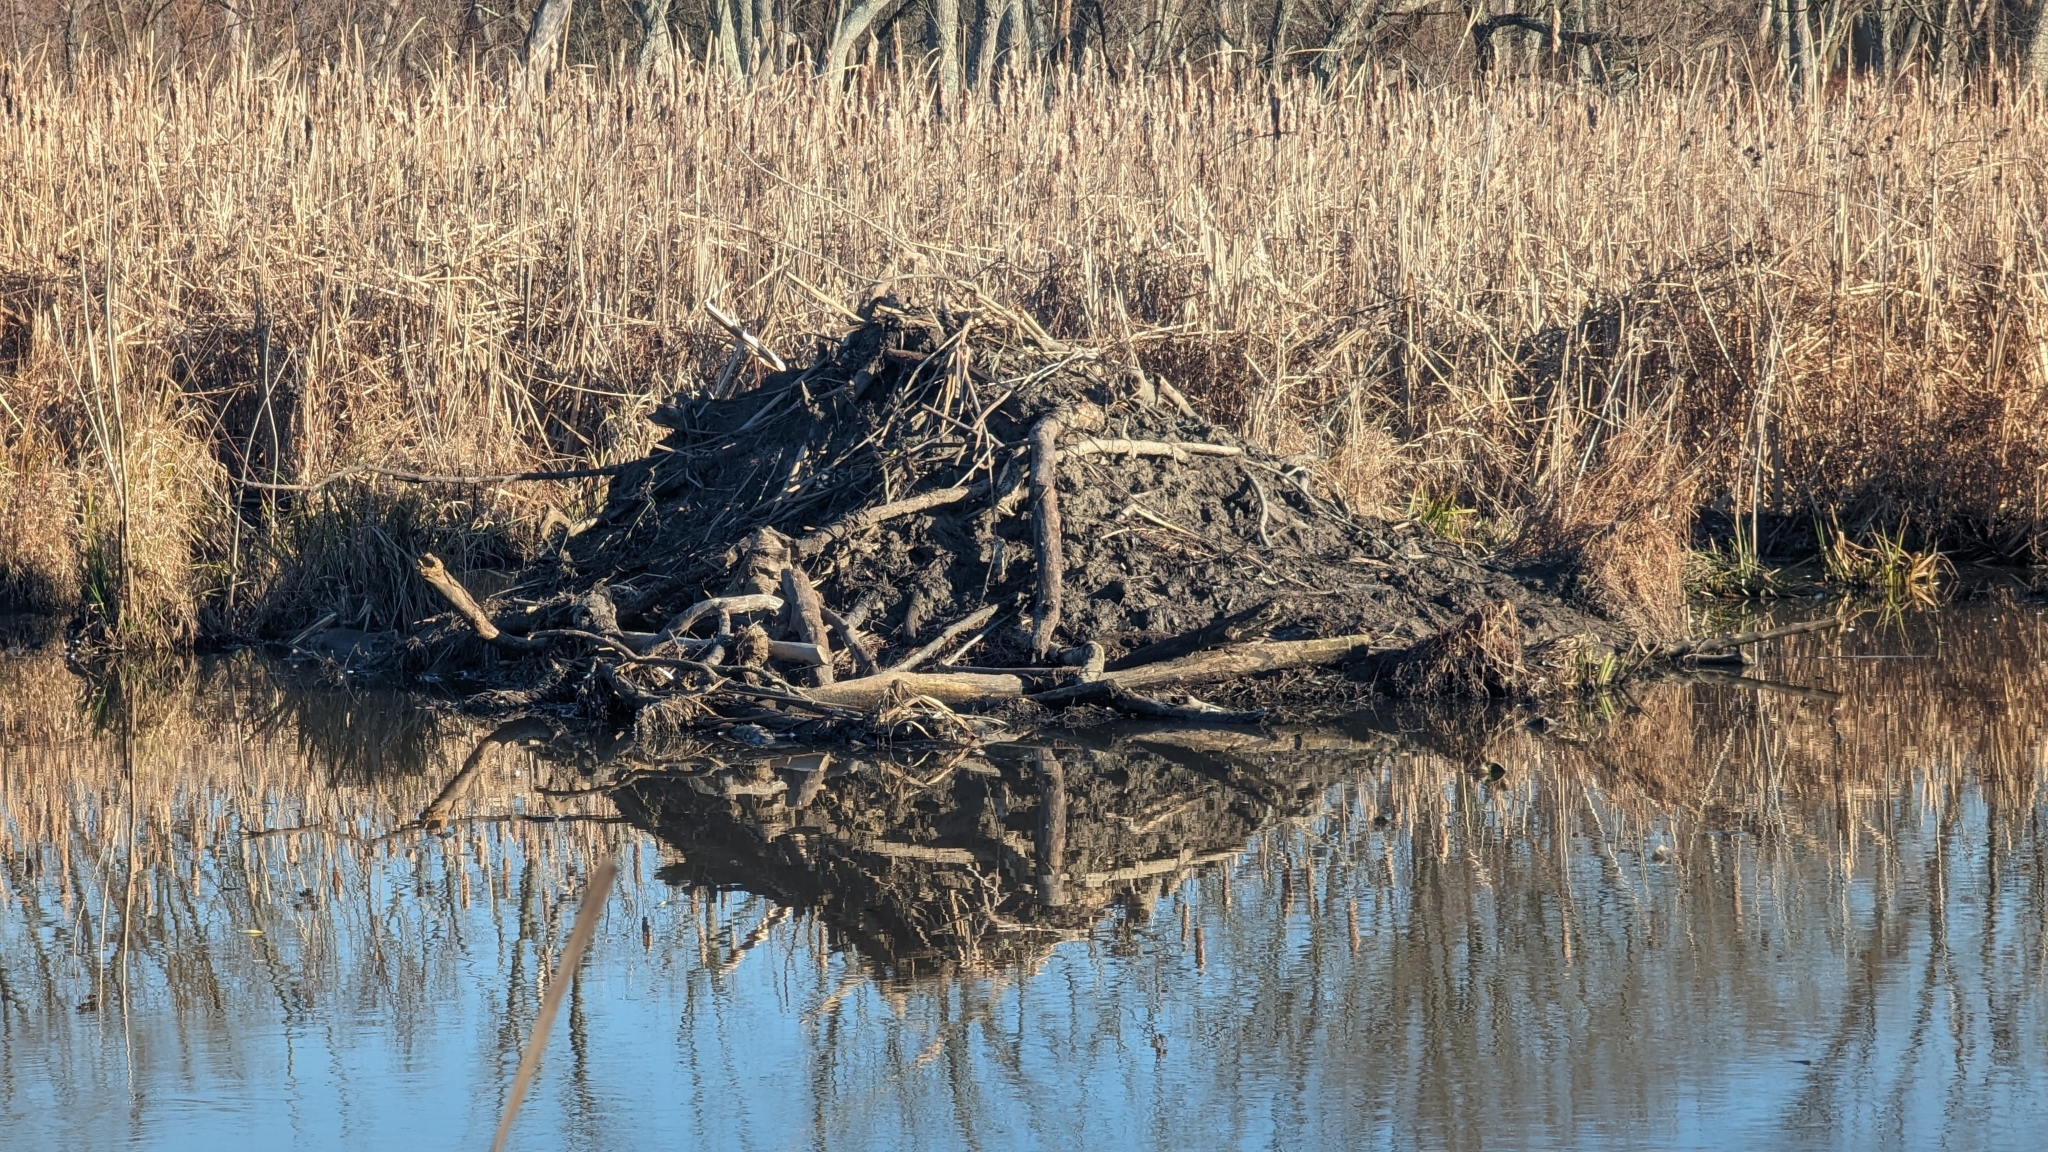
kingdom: Animalia
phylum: Chordata
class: Mammalia
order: Rodentia
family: Castoridae
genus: Castor
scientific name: Castor canadensis
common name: American beaver
